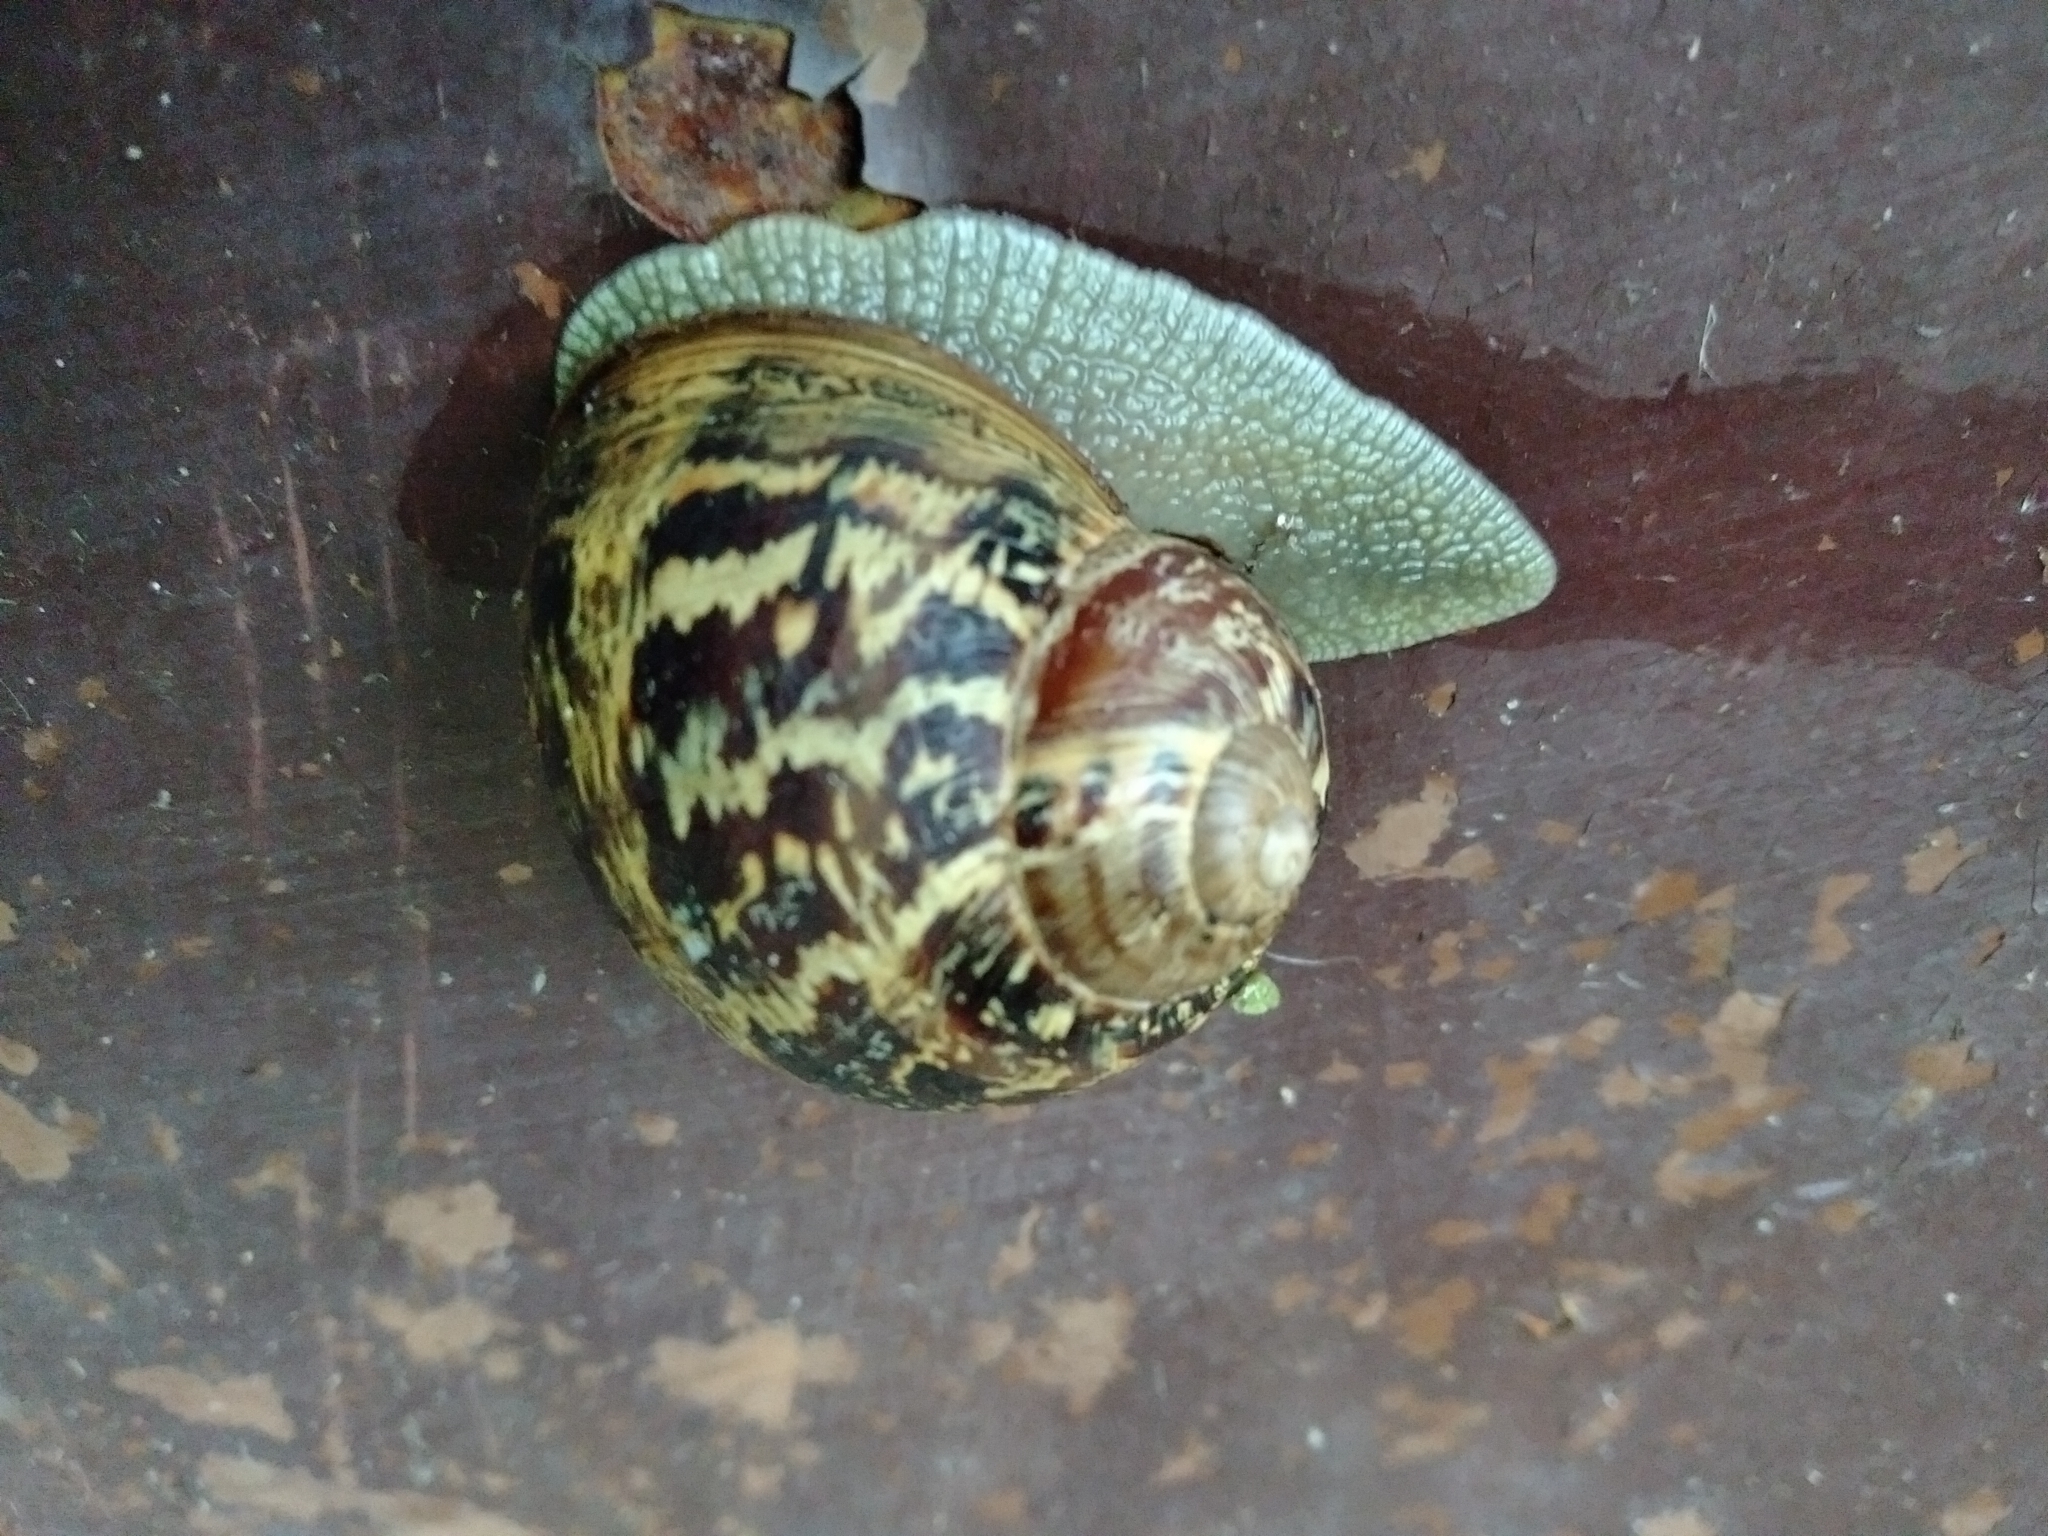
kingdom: Animalia
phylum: Mollusca
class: Gastropoda
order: Stylommatophora
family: Helicidae
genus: Cornu
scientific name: Cornu aspersum
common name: Brown garden snail
